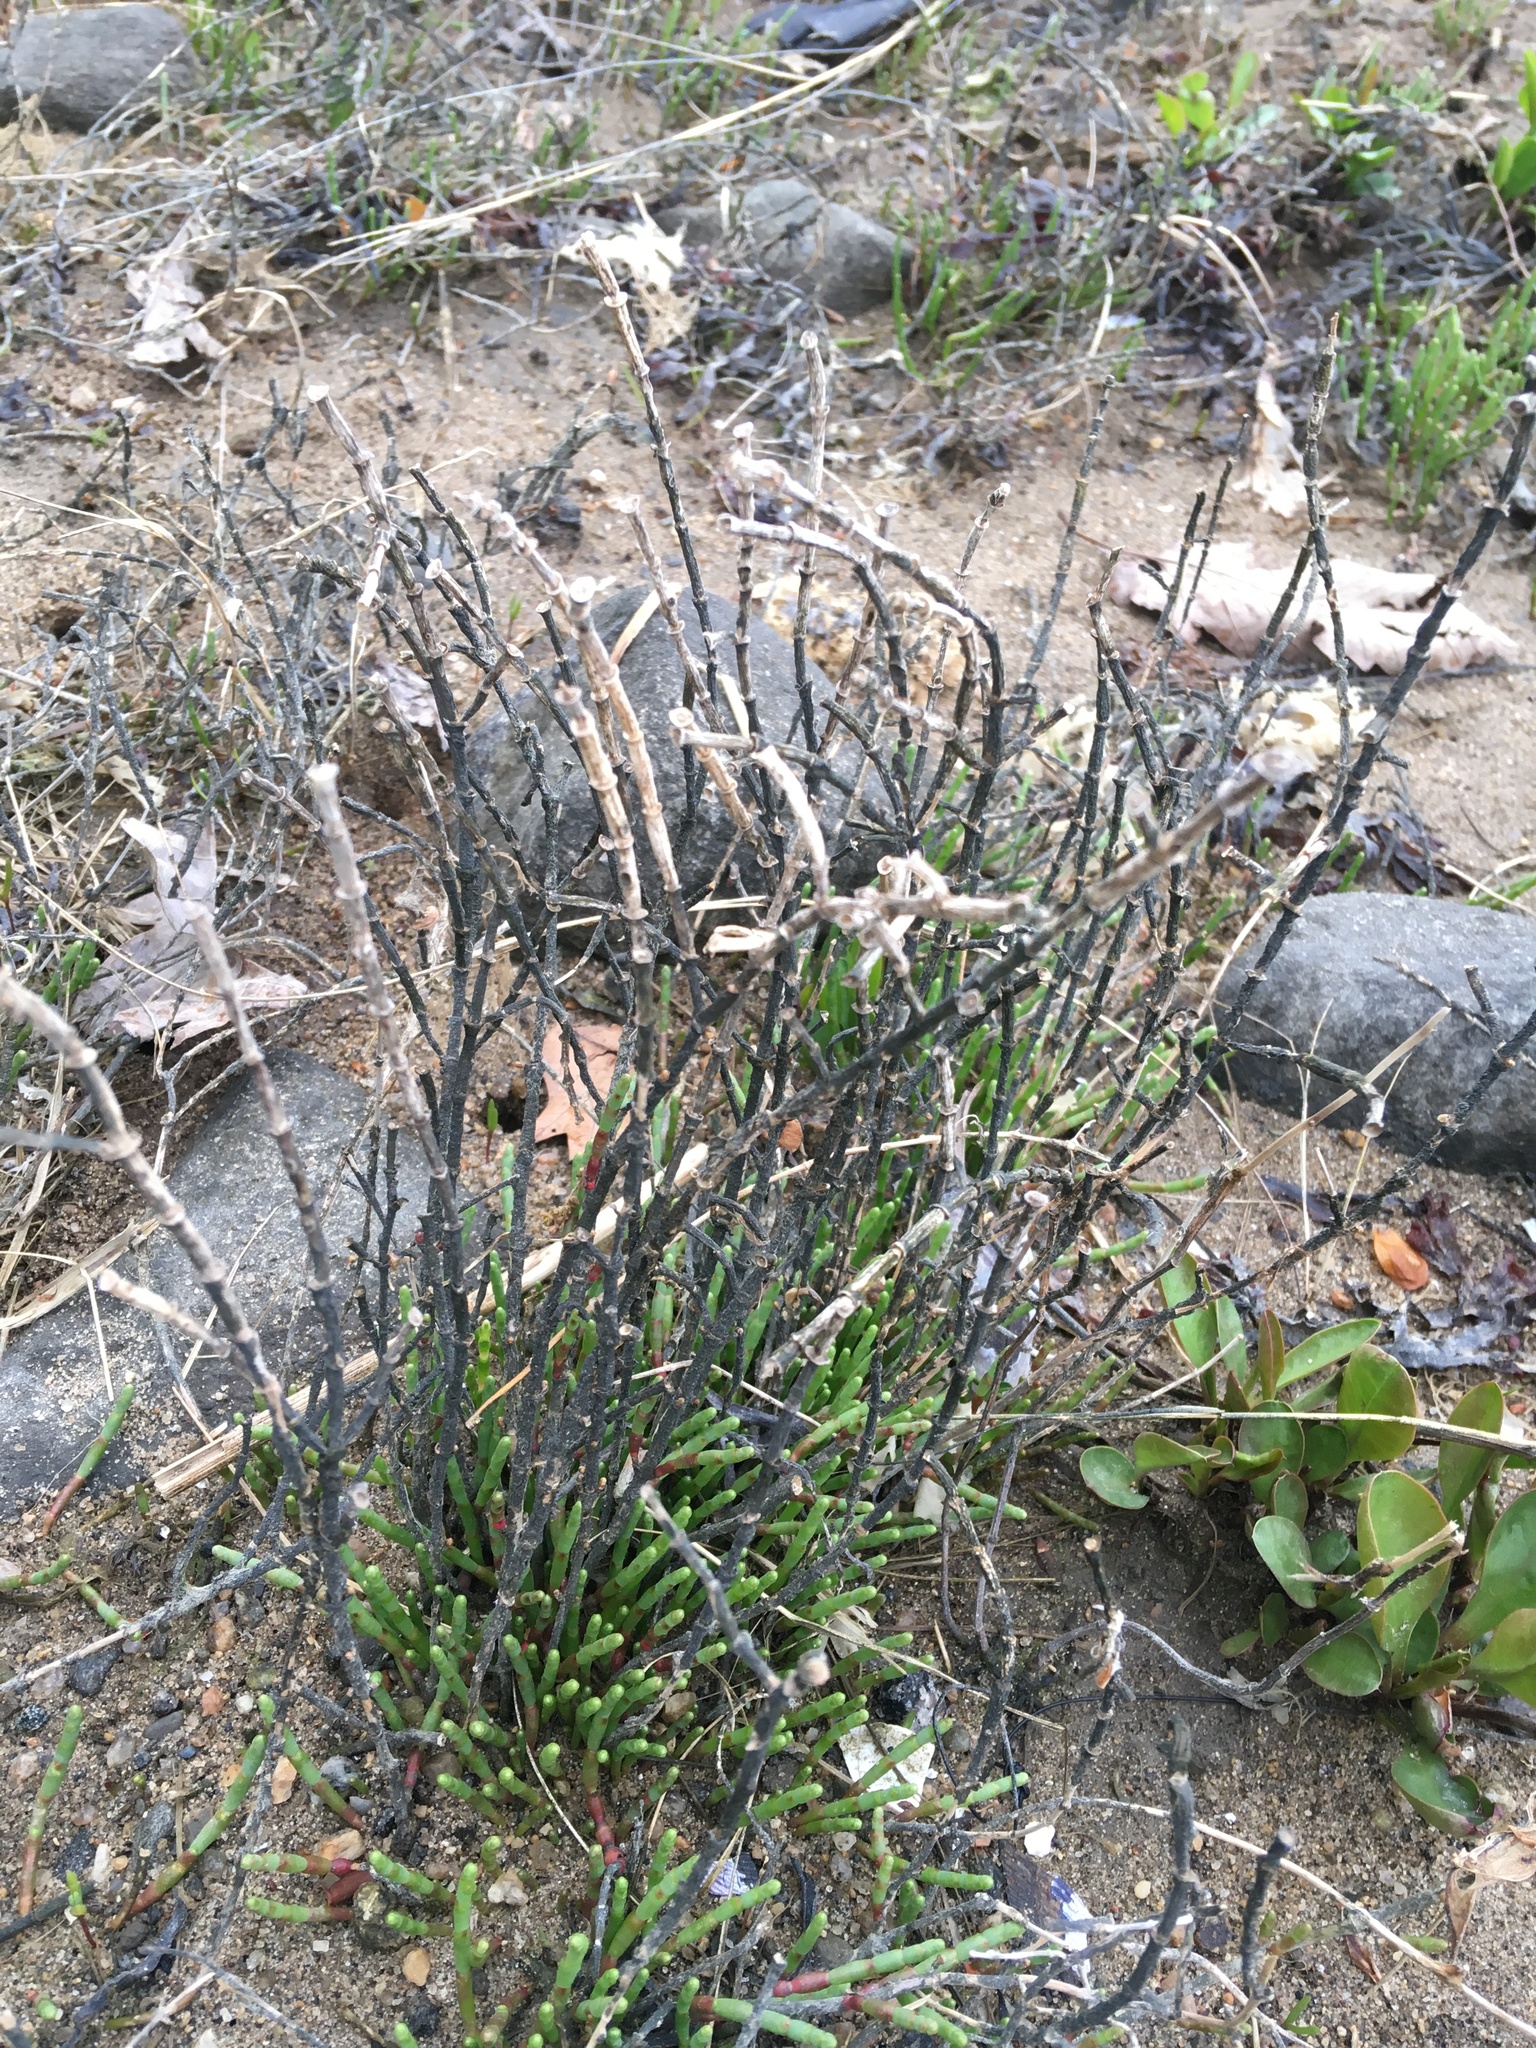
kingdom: Plantae
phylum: Tracheophyta
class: Magnoliopsida
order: Caryophyllales
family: Amaranthaceae
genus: Salicornia
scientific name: Salicornia virginica
